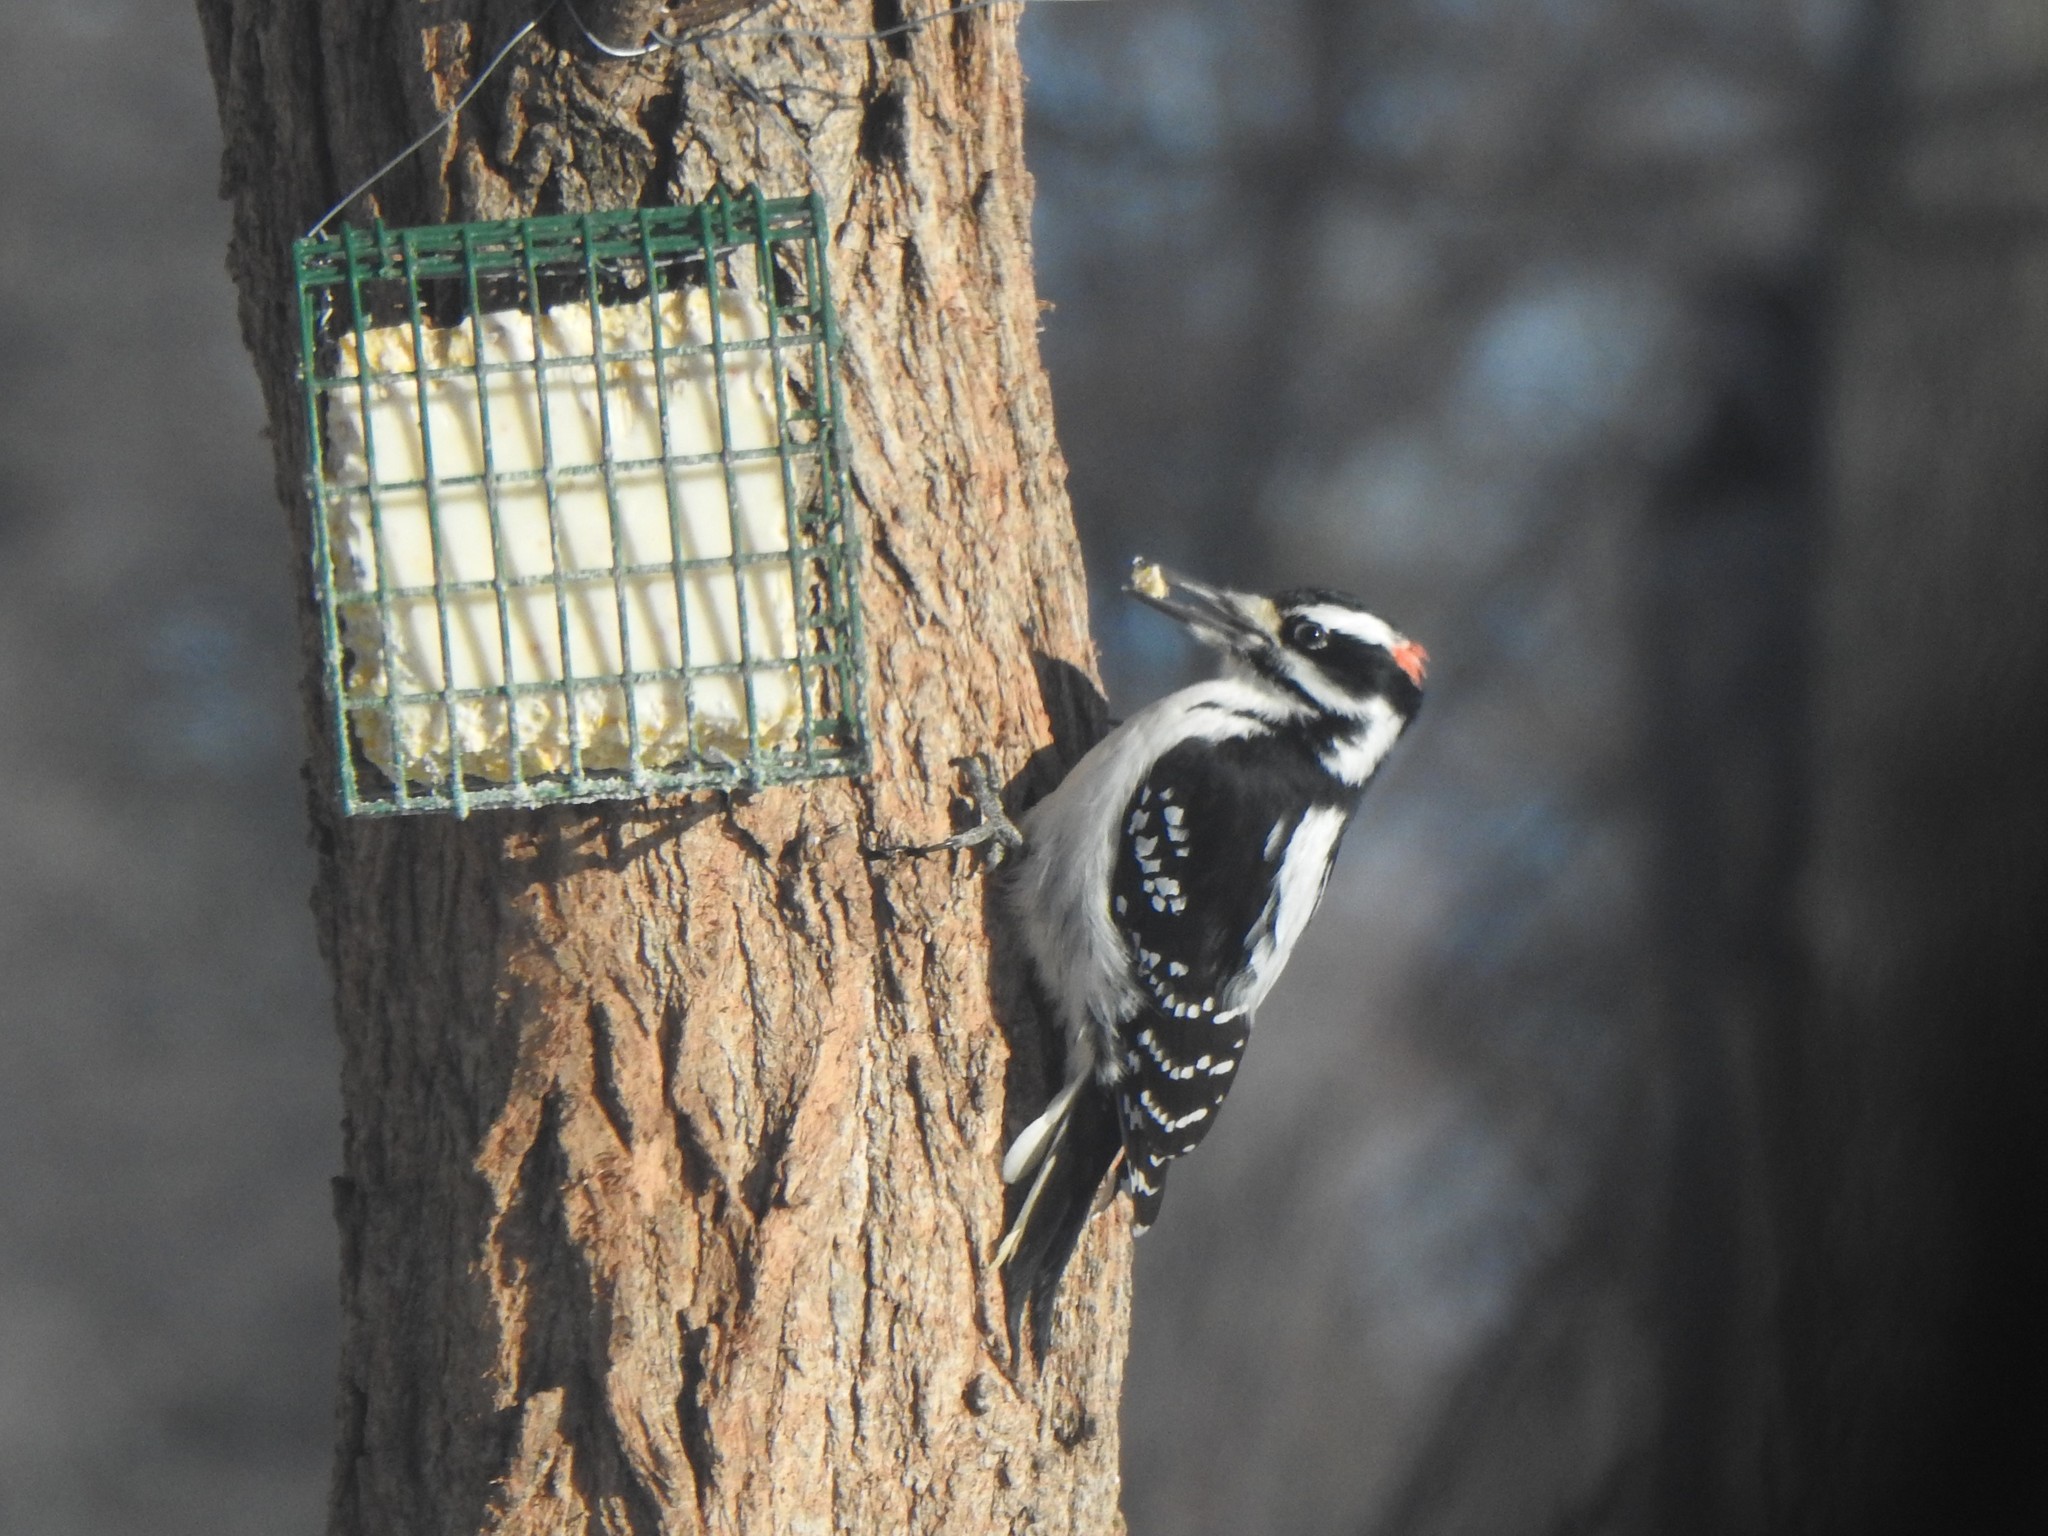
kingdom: Animalia
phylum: Chordata
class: Aves
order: Piciformes
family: Picidae
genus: Leuconotopicus
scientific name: Leuconotopicus villosus
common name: Hairy woodpecker
